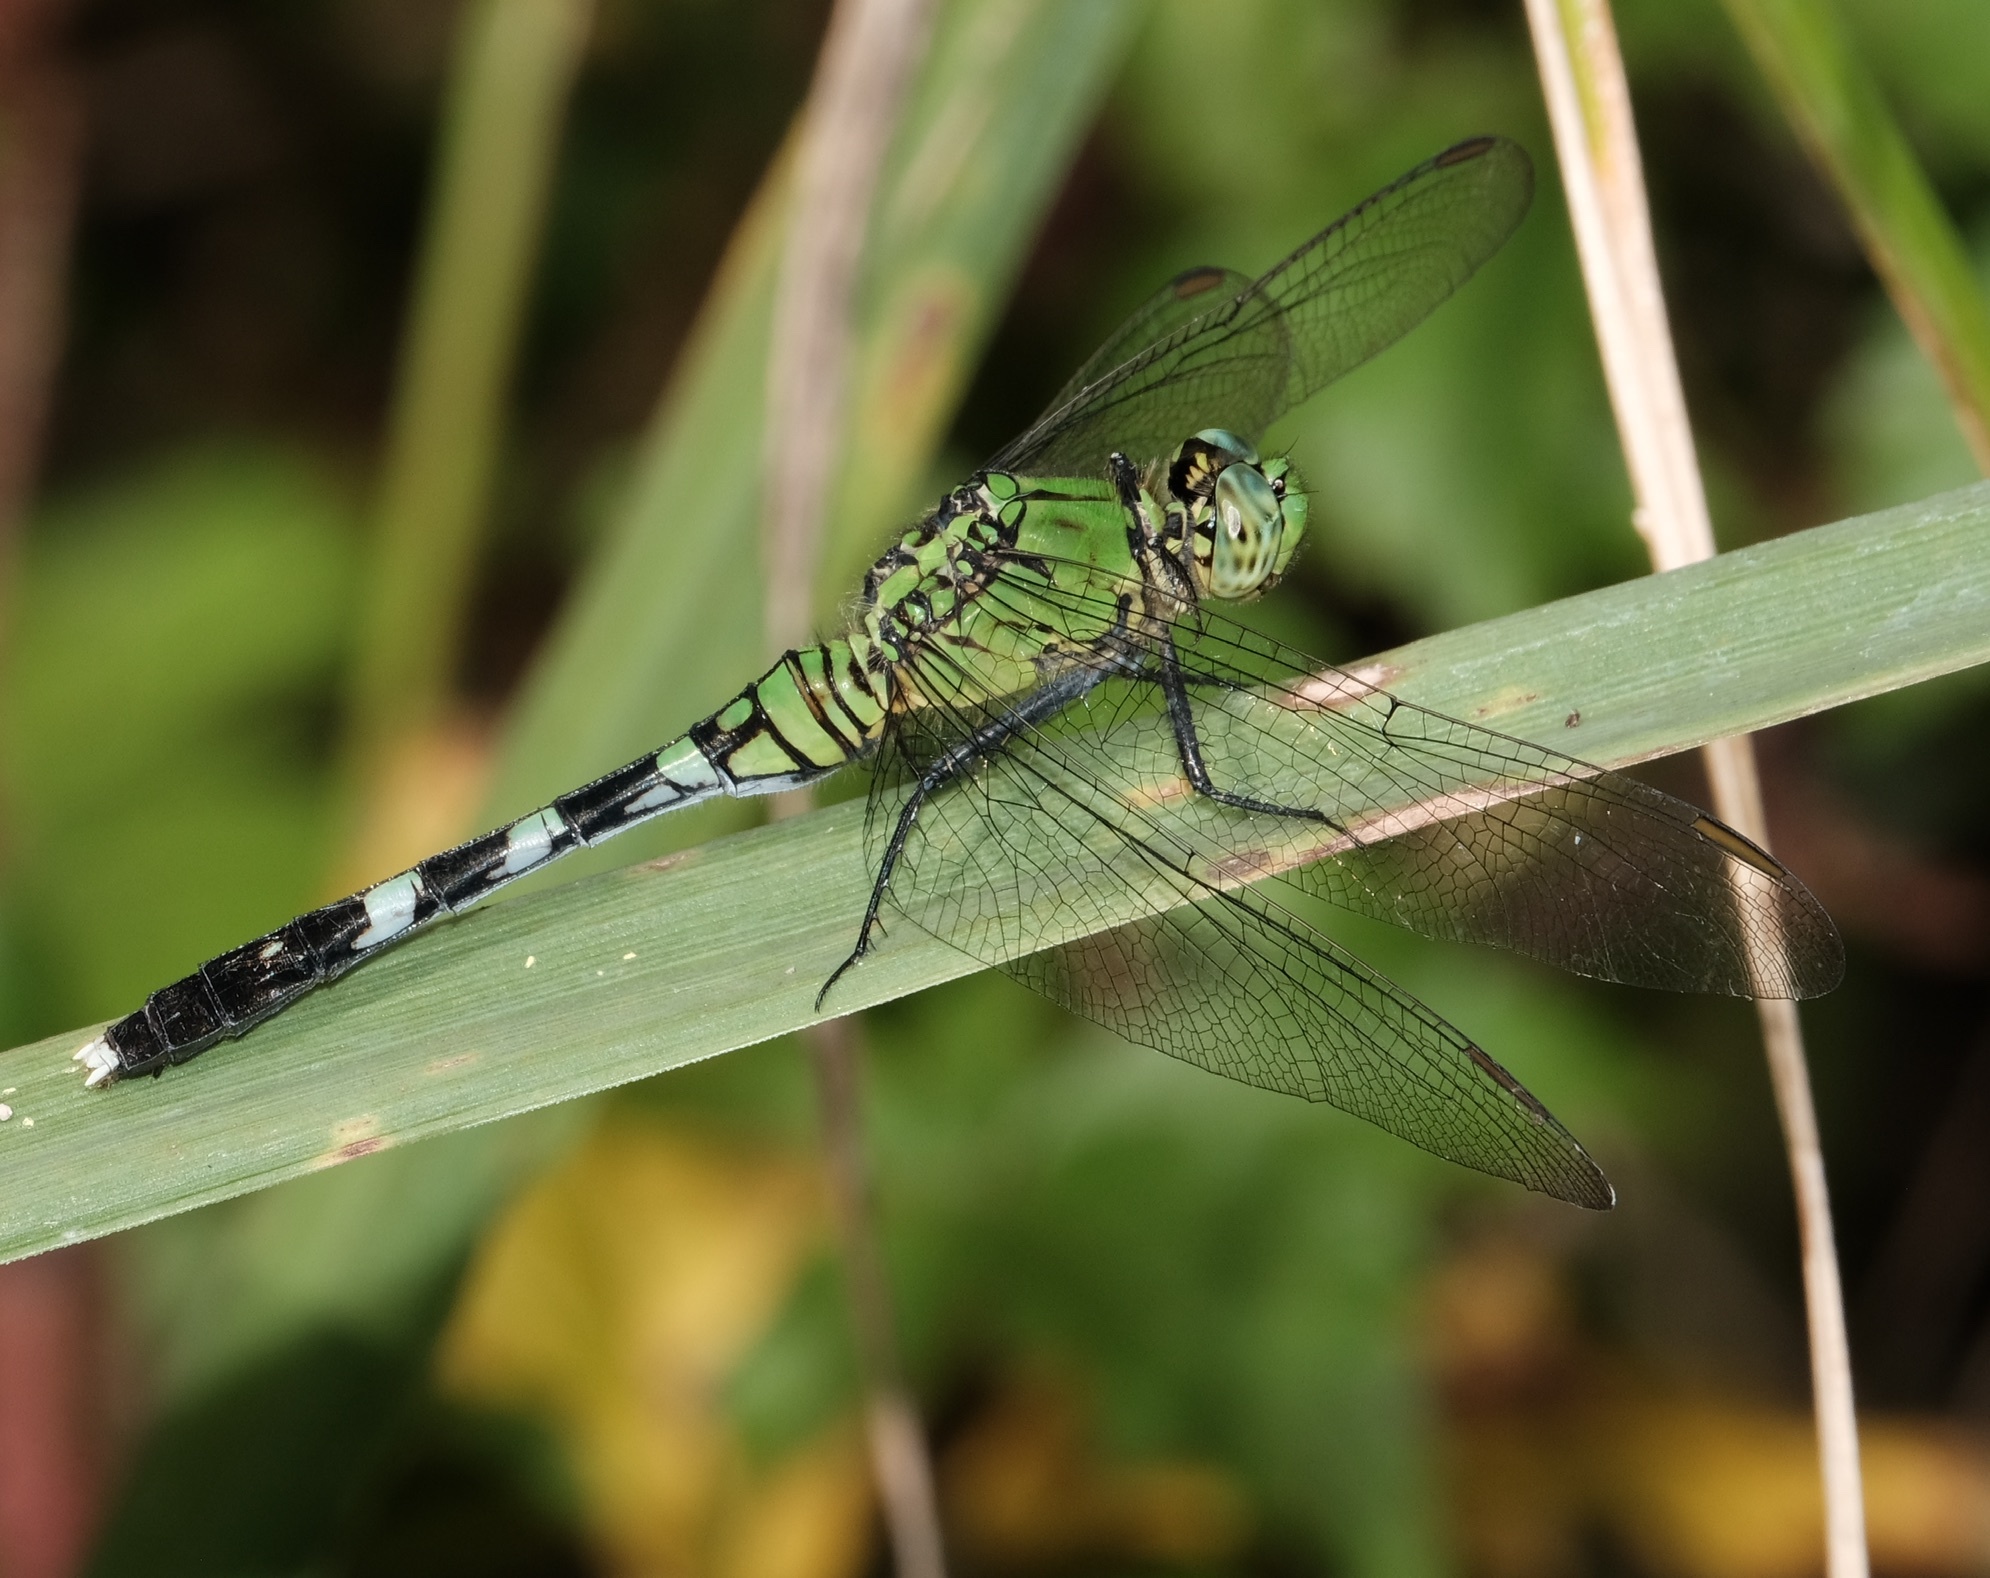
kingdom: Animalia
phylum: Arthropoda
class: Insecta
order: Odonata
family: Libellulidae
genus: Erythemis
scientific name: Erythemis simplicicollis
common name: Eastern pondhawk
